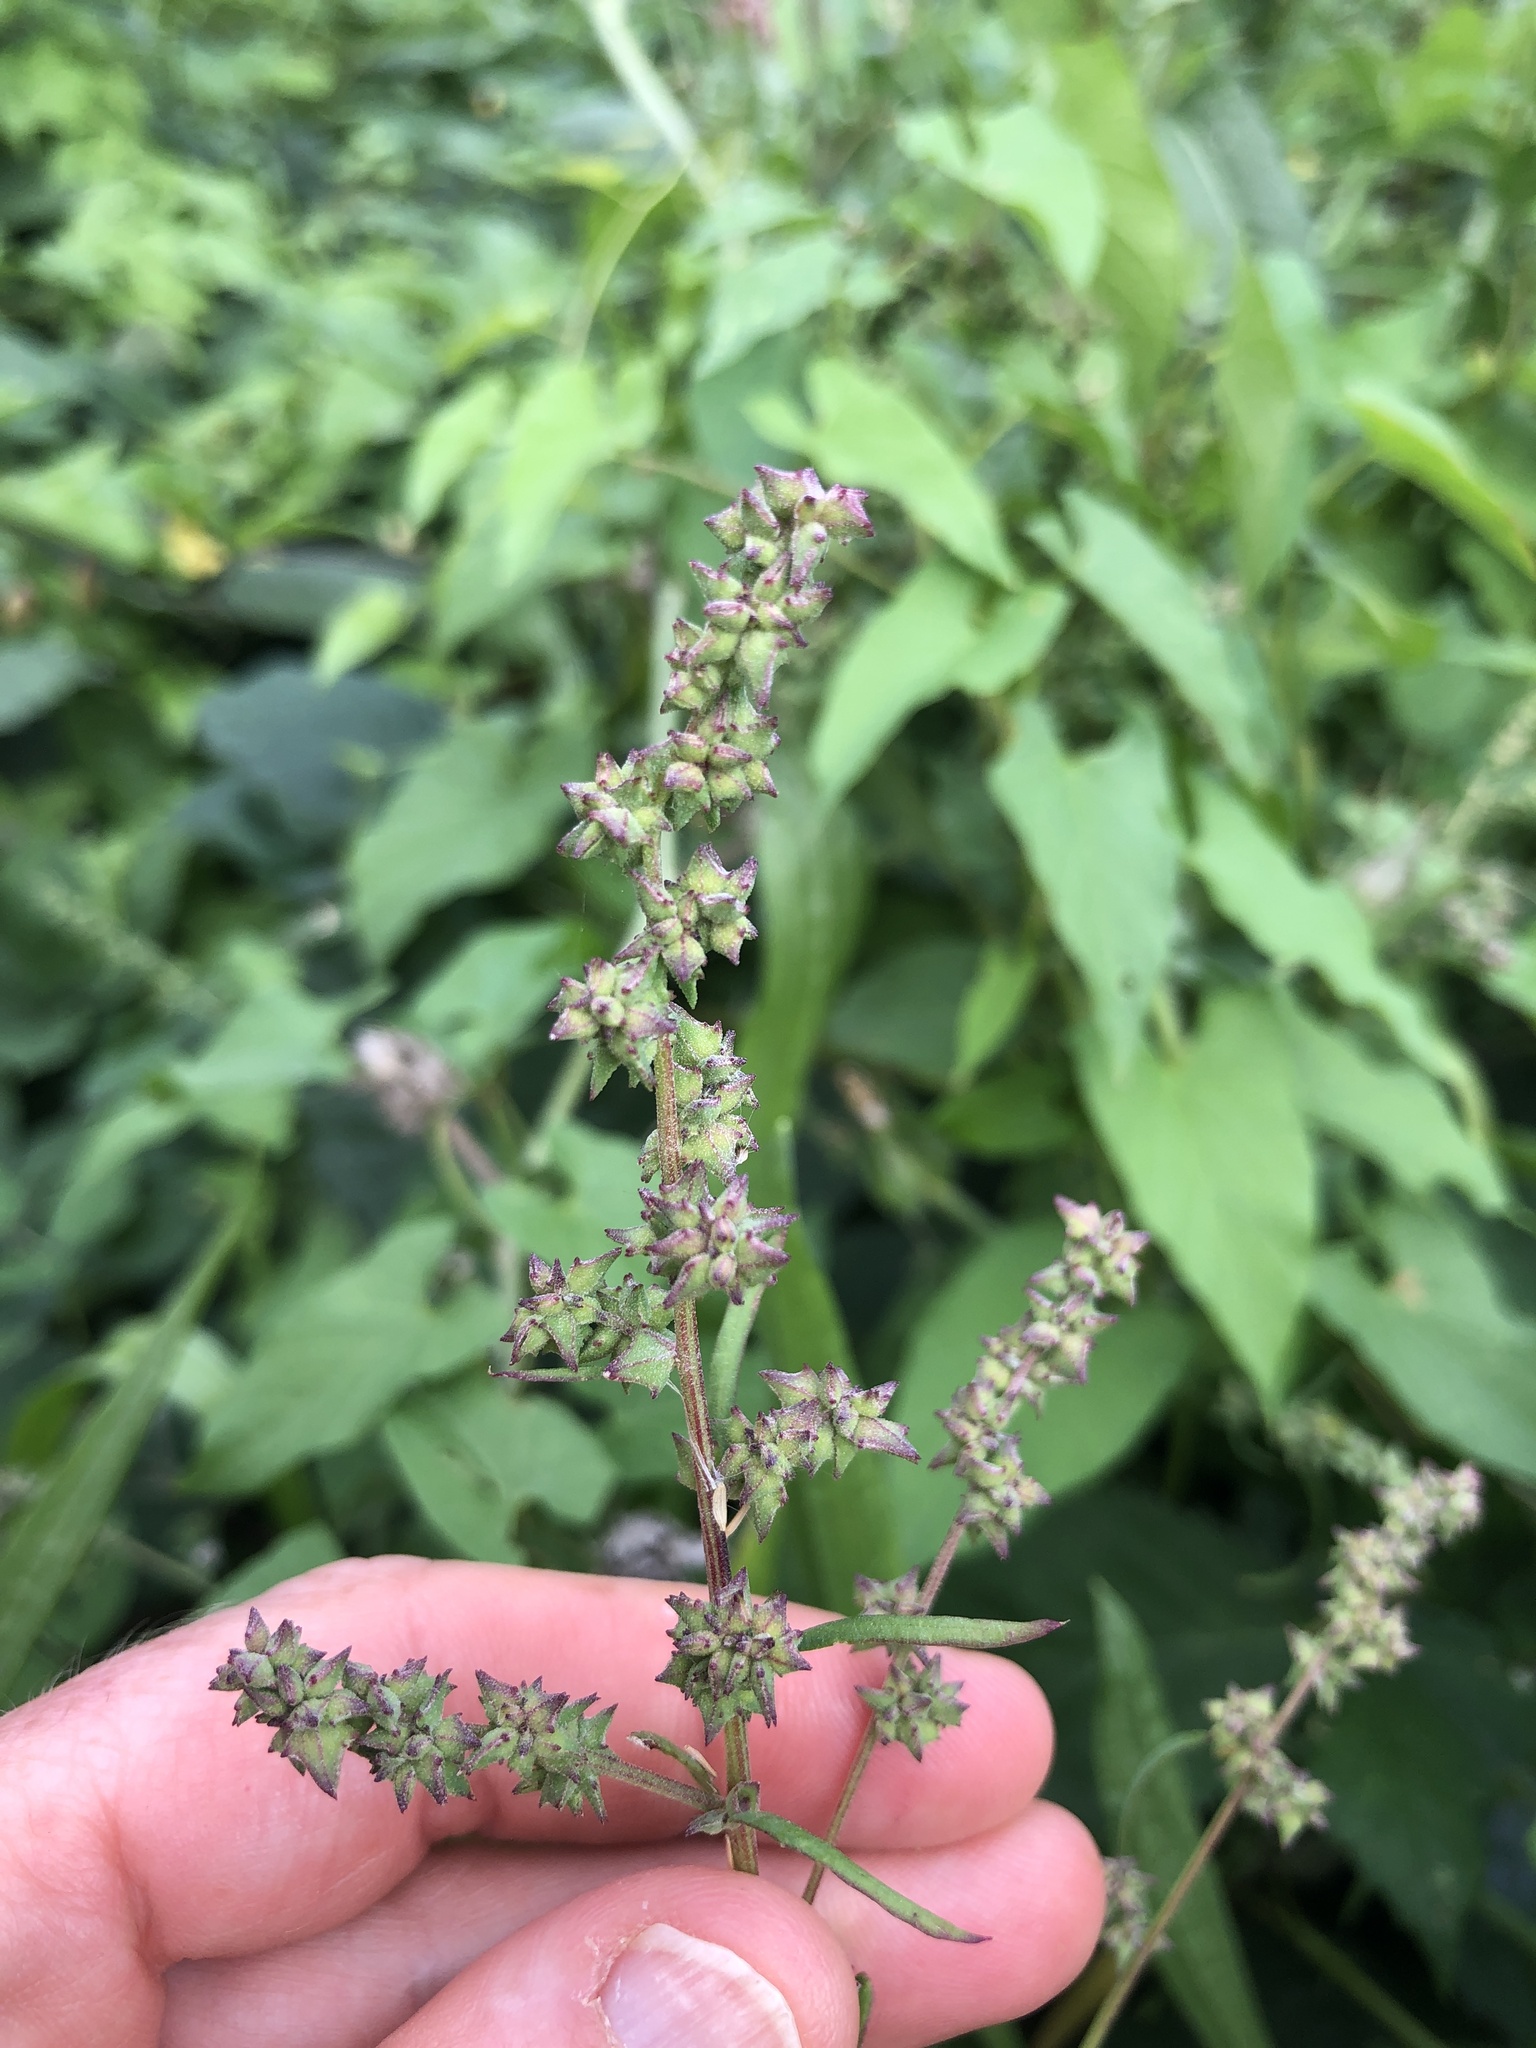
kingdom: Plantae
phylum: Tracheophyta
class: Magnoliopsida
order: Caryophyllales
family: Amaranthaceae
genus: Atriplex
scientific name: Atriplex patula
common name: Common orache
